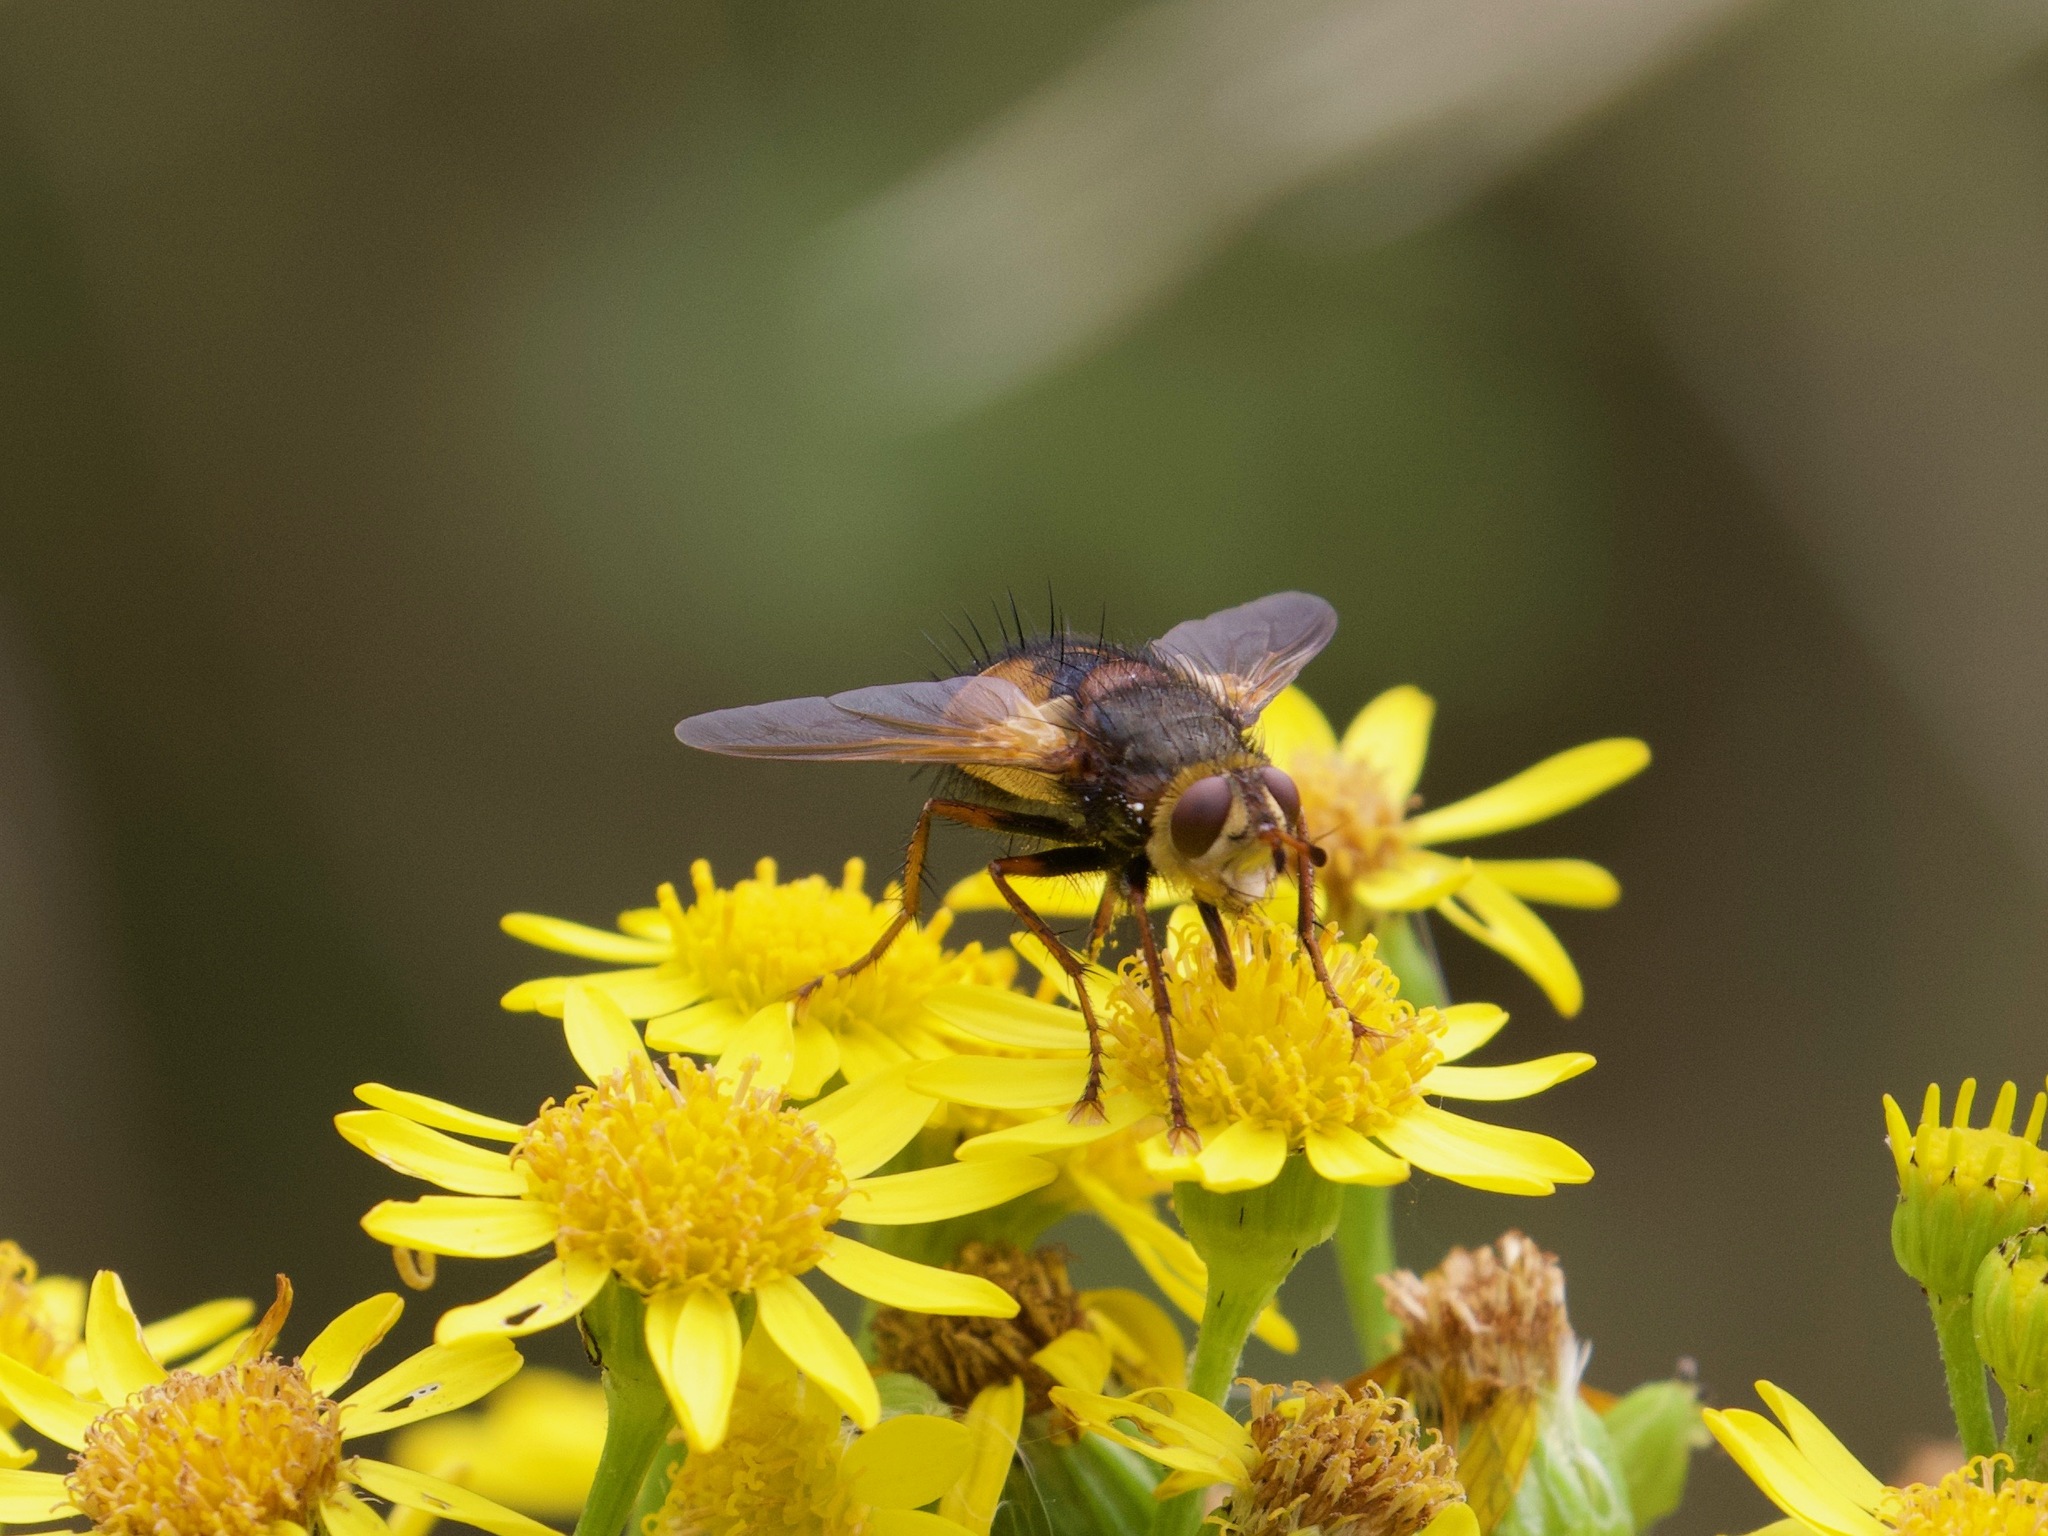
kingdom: Animalia
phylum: Arthropoda
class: Insecta
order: Diptera
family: Tachinidae
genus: Tachina
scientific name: Tachina fera
